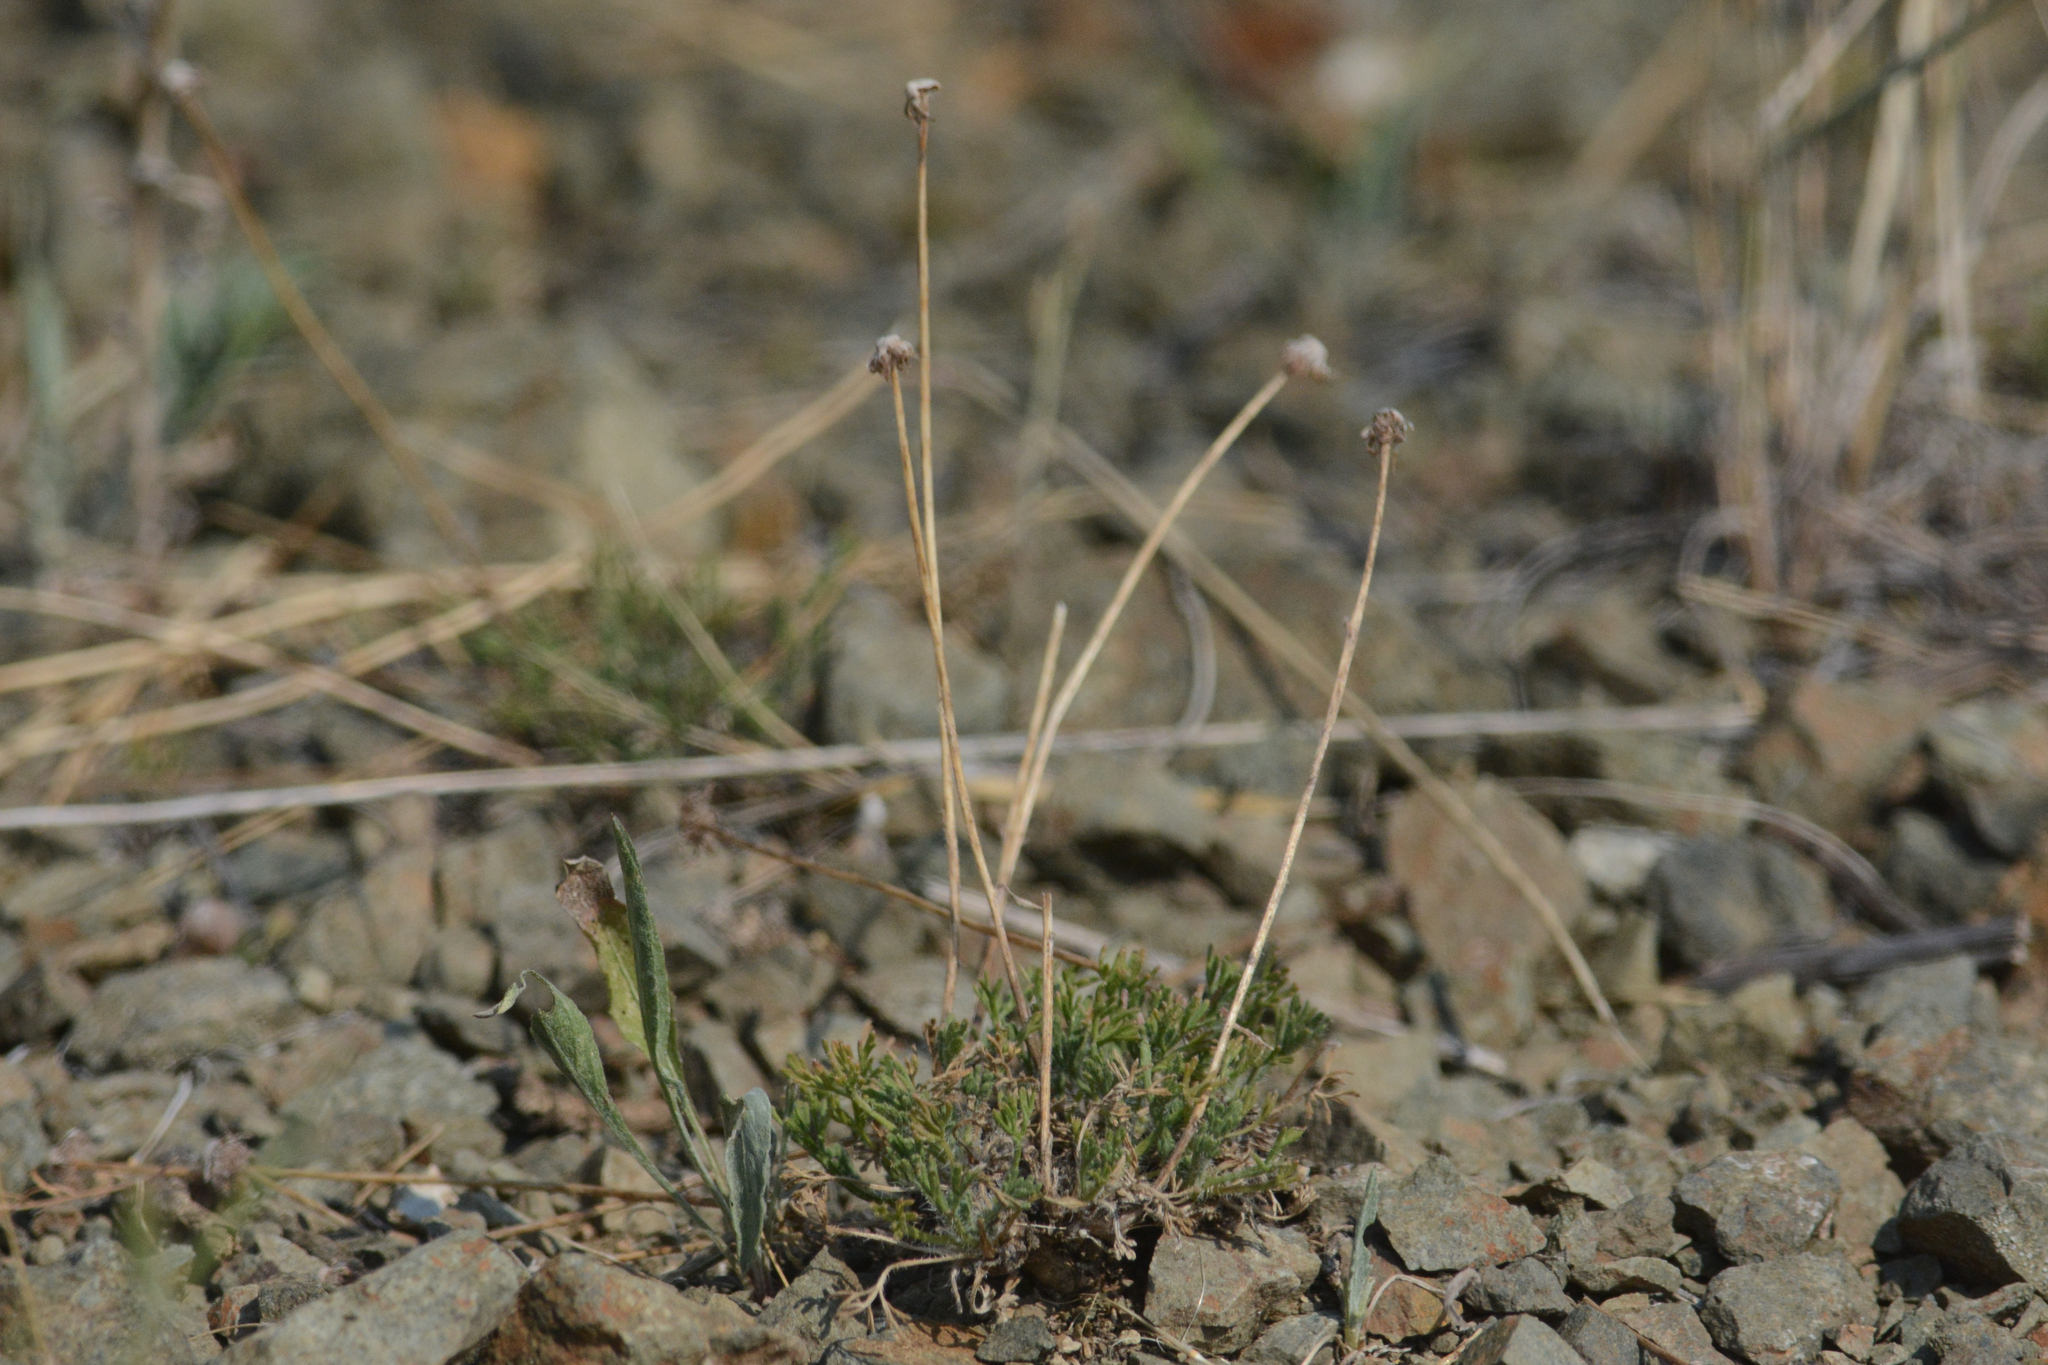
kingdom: Plantae
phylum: Tracheophyta
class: Magnoliopsida
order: Asterales
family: Asteraceae
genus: Erigeron
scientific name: Erigeron compositus
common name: Dwarf mountain fleabane
